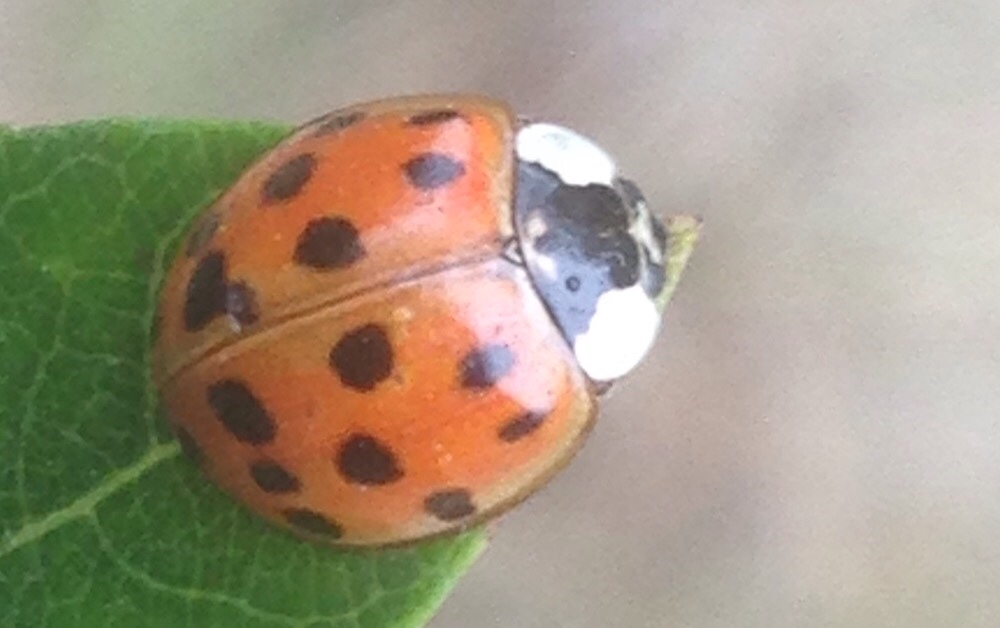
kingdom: Animalia
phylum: Arthropoda
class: Insecta
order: Coleoptera
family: Coccinellidae
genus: Harmonia
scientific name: Harmonia axyridis
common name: Harlequin ladybird
